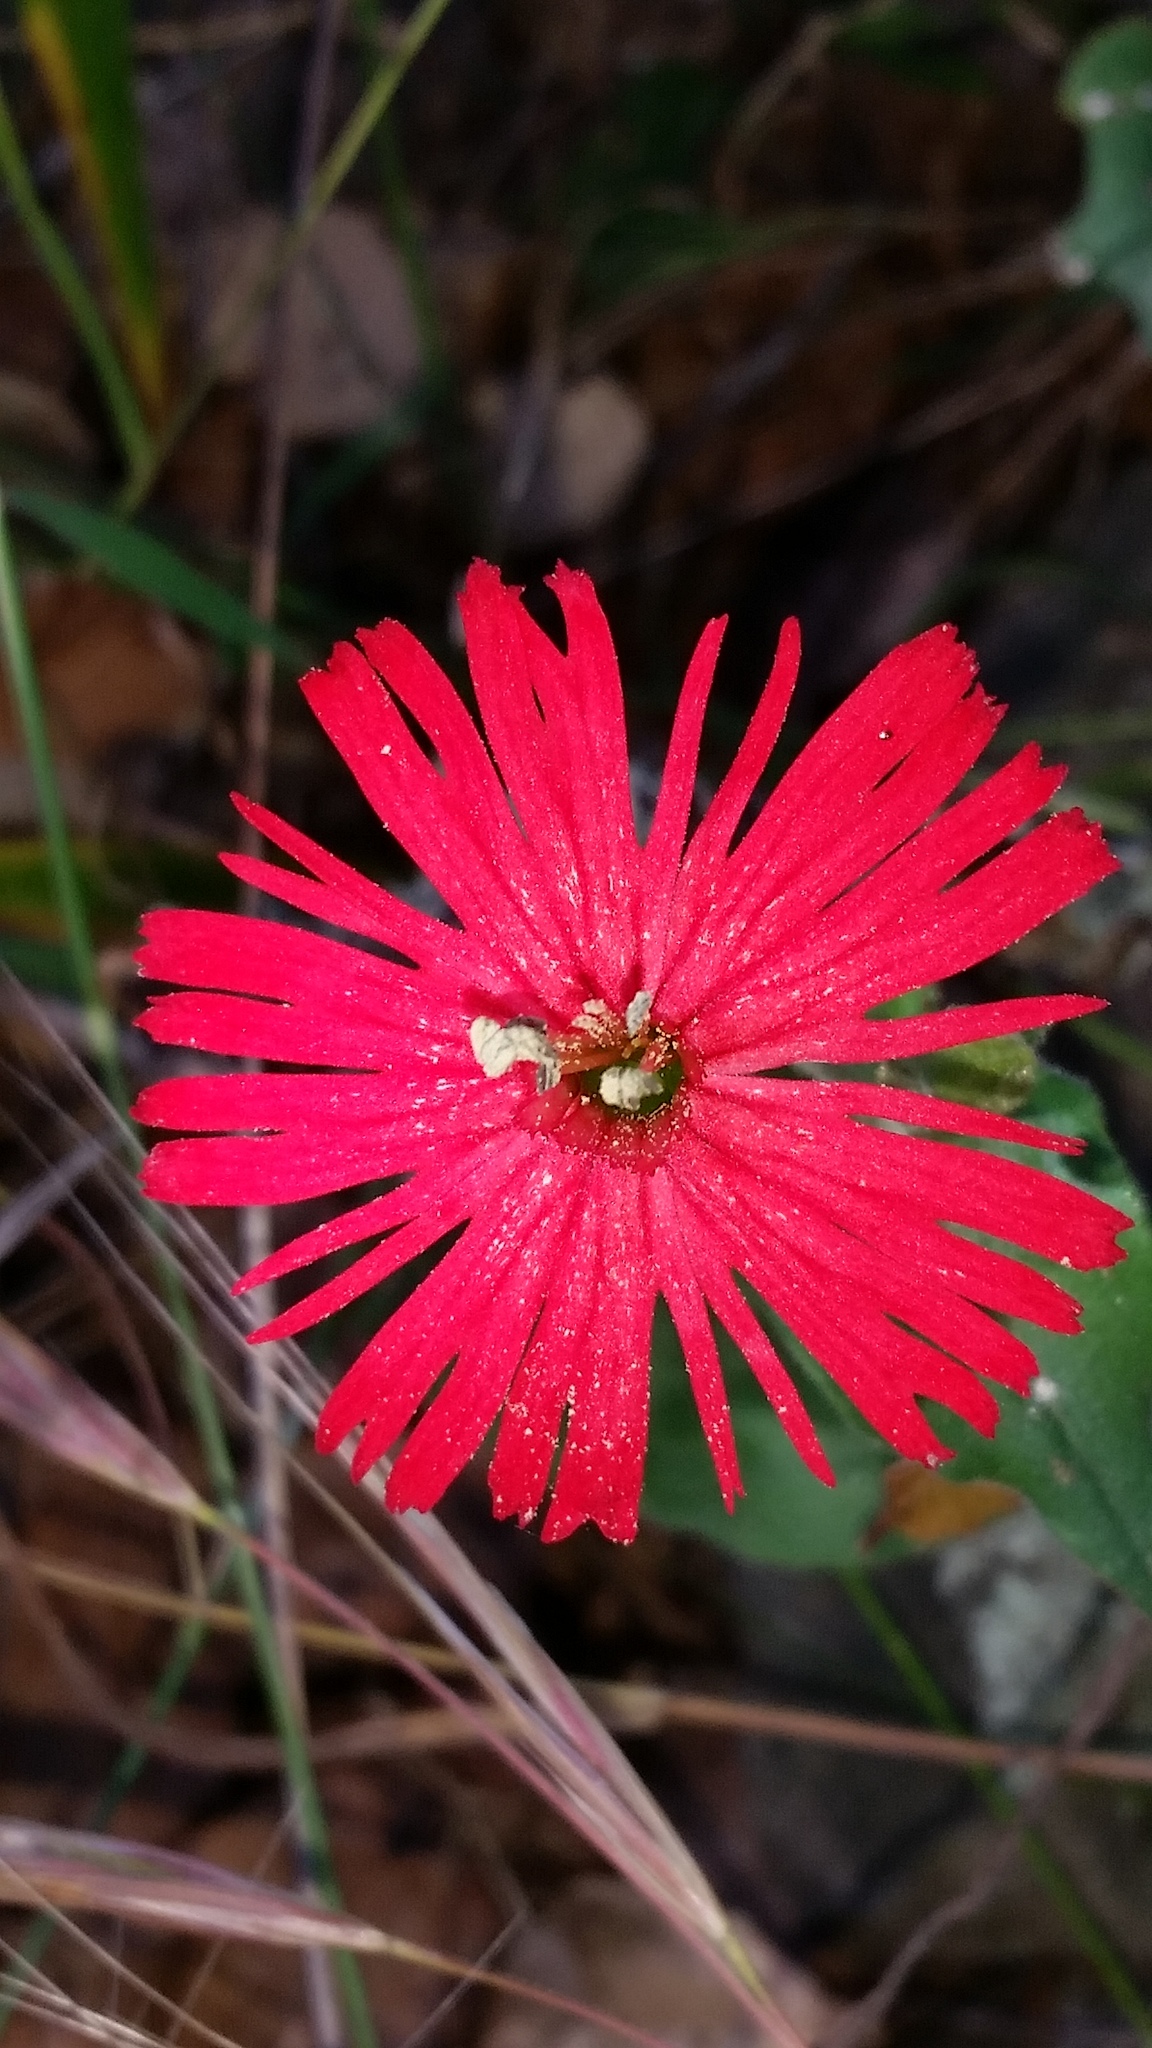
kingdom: Plantae
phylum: Tracheophyta
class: Magnoliopsida
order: Caryophyllales
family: Caryophyllaceae
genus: Silene
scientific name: Silene laciniata
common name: Indian-pink
